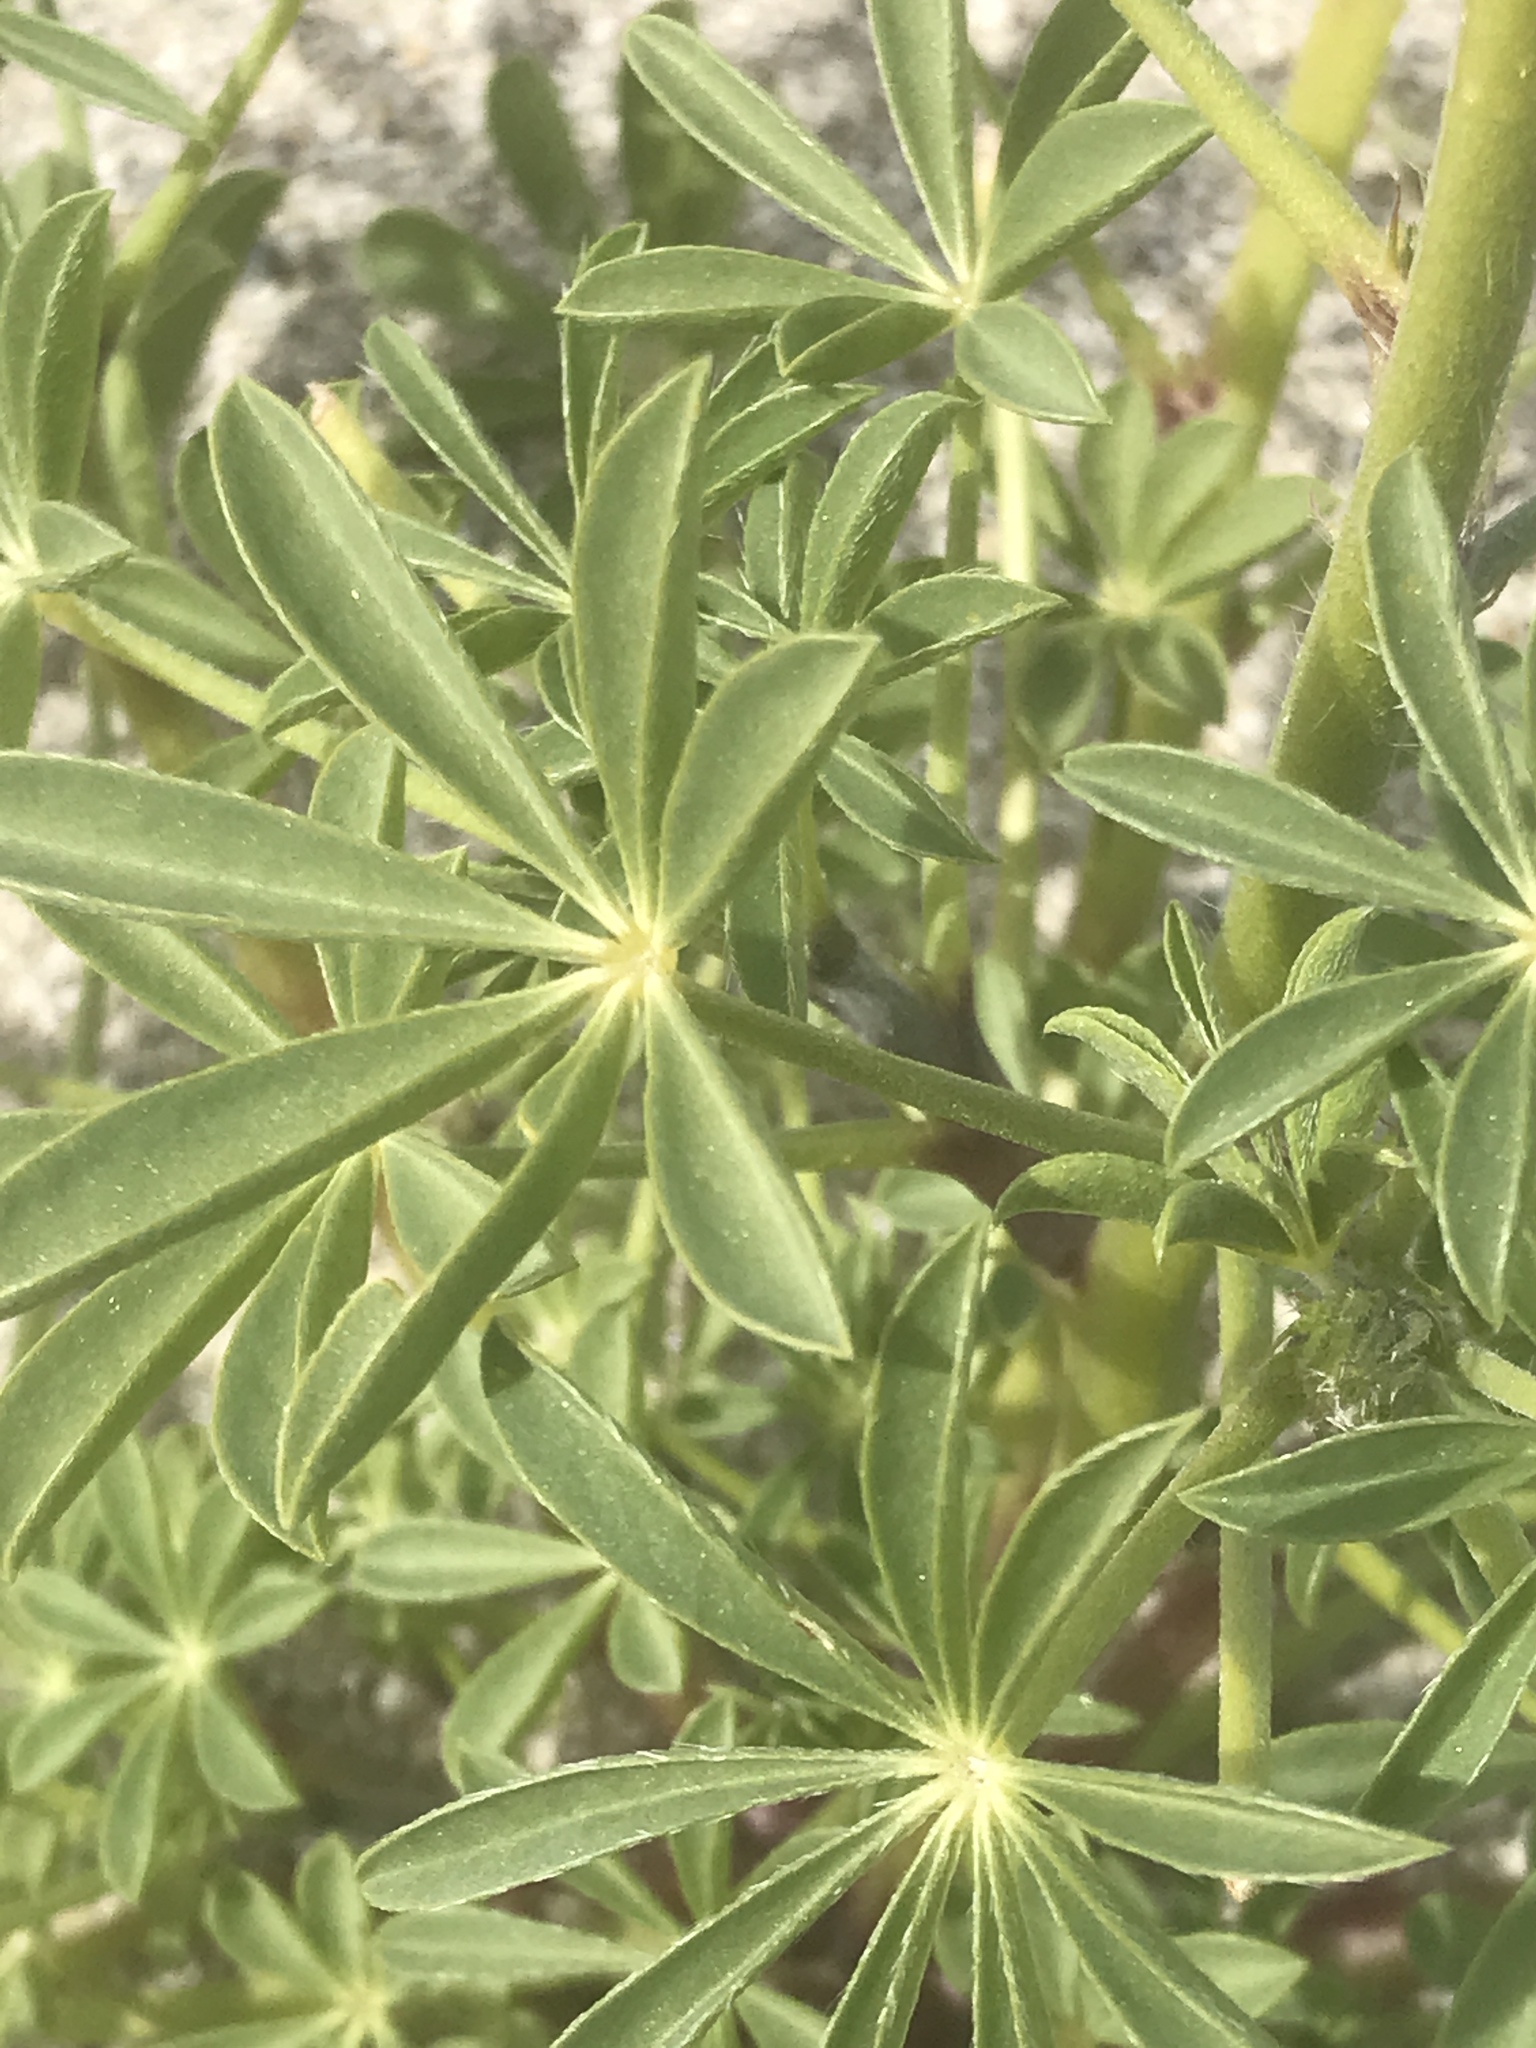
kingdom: Plantae
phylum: Tracheophyta
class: Magnoliopsida
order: Fabales
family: Fabaceae
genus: Lupinus
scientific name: Lupinus arizonicus
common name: Arizona lupine
